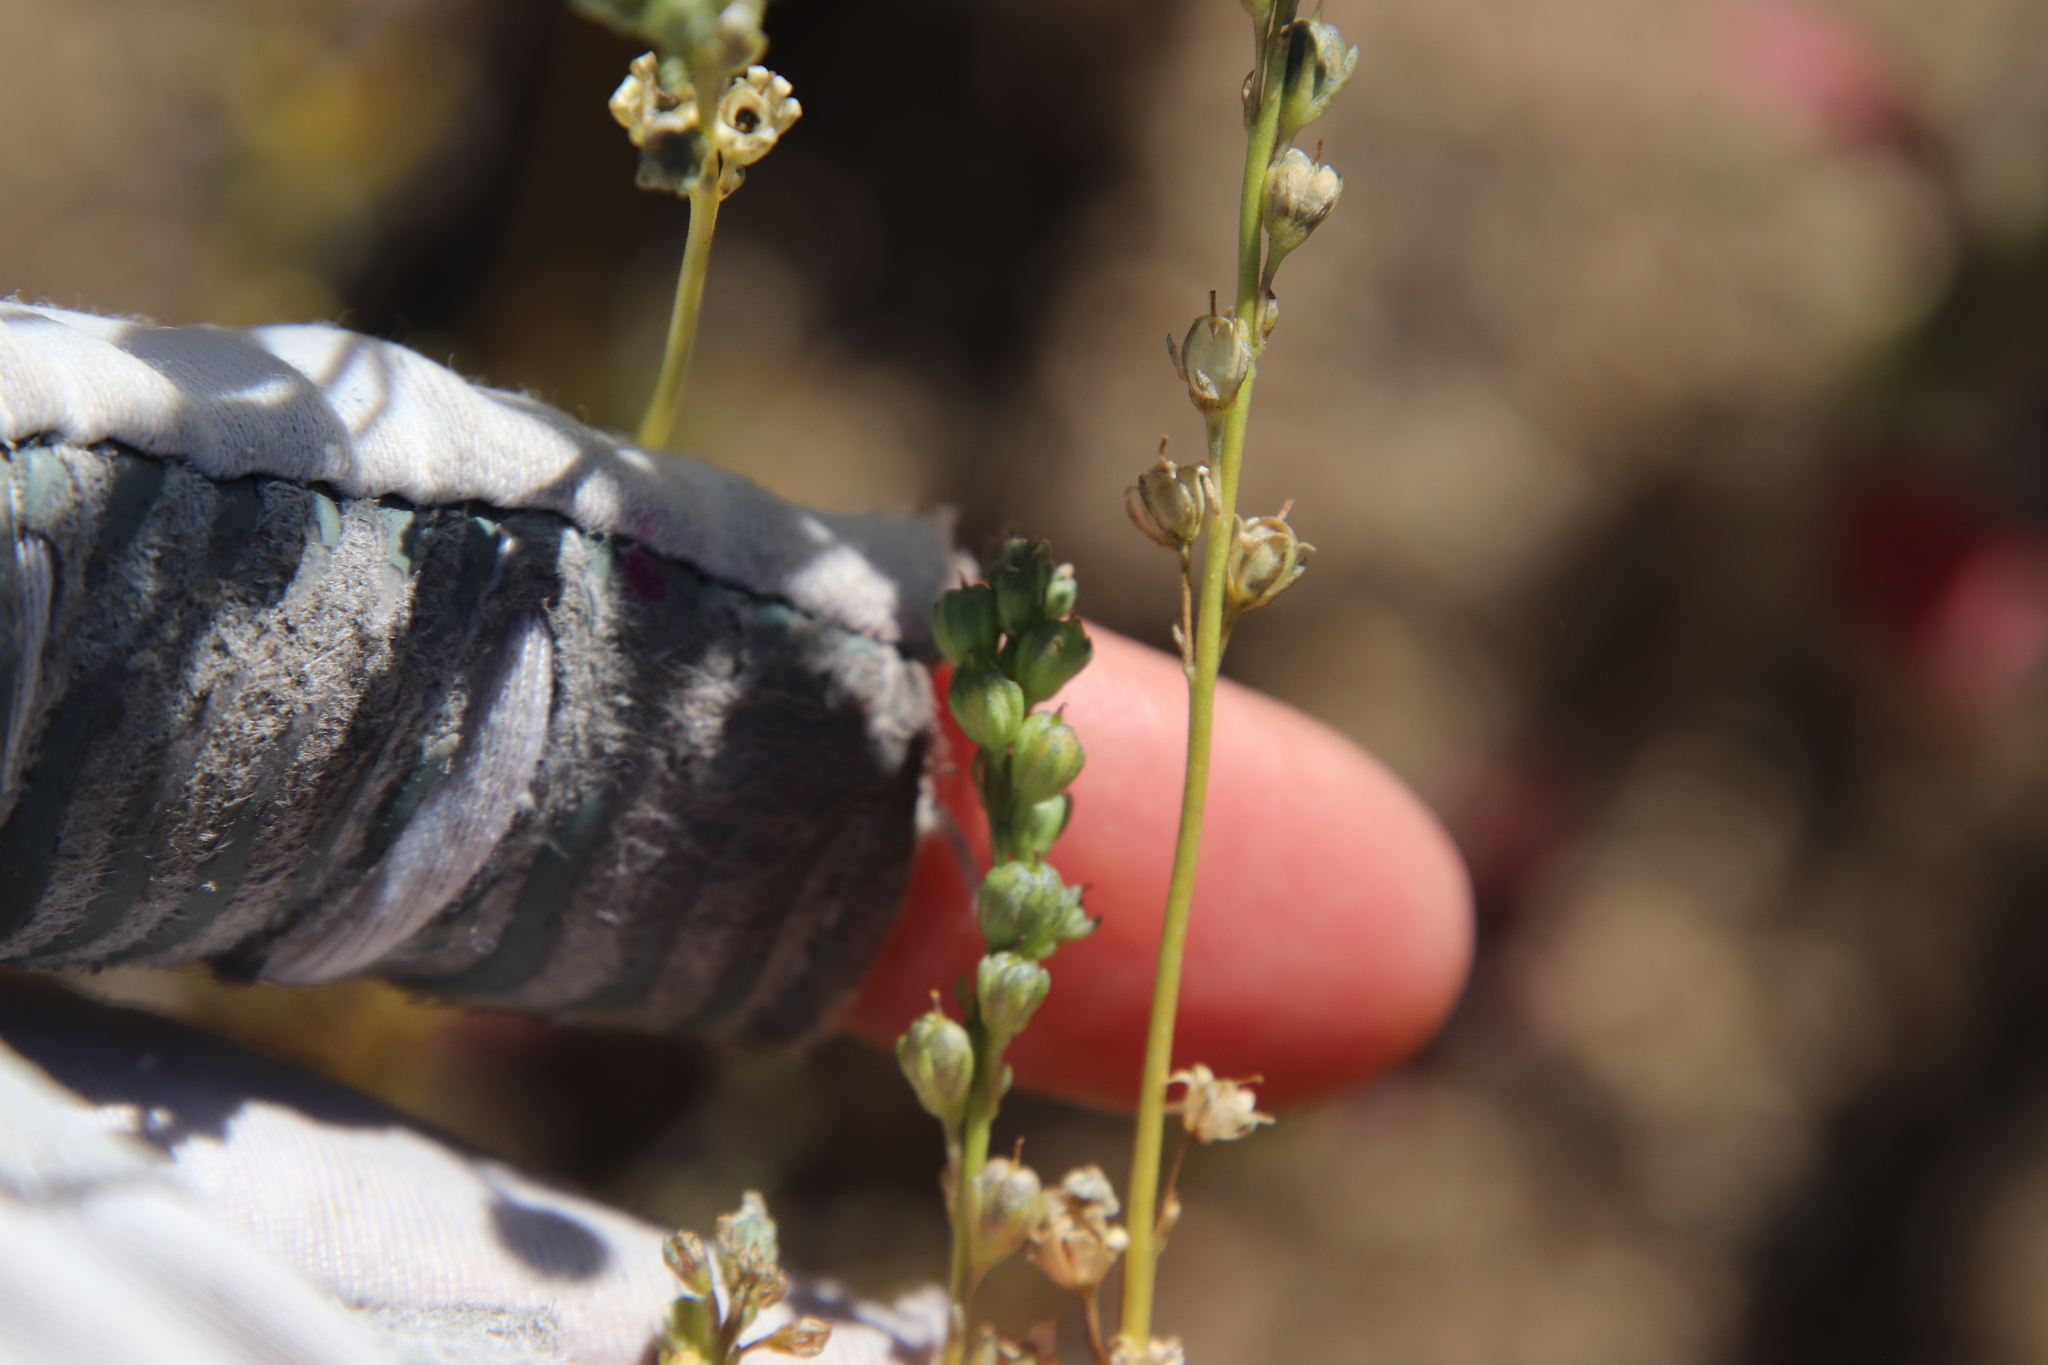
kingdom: Plantae
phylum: Tracheophyta
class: Magnoliopsida
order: Lamiales
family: Plantaginaceae
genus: Nuttallanthus
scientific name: Nuttallanthus texanus
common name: Texas toadflax
